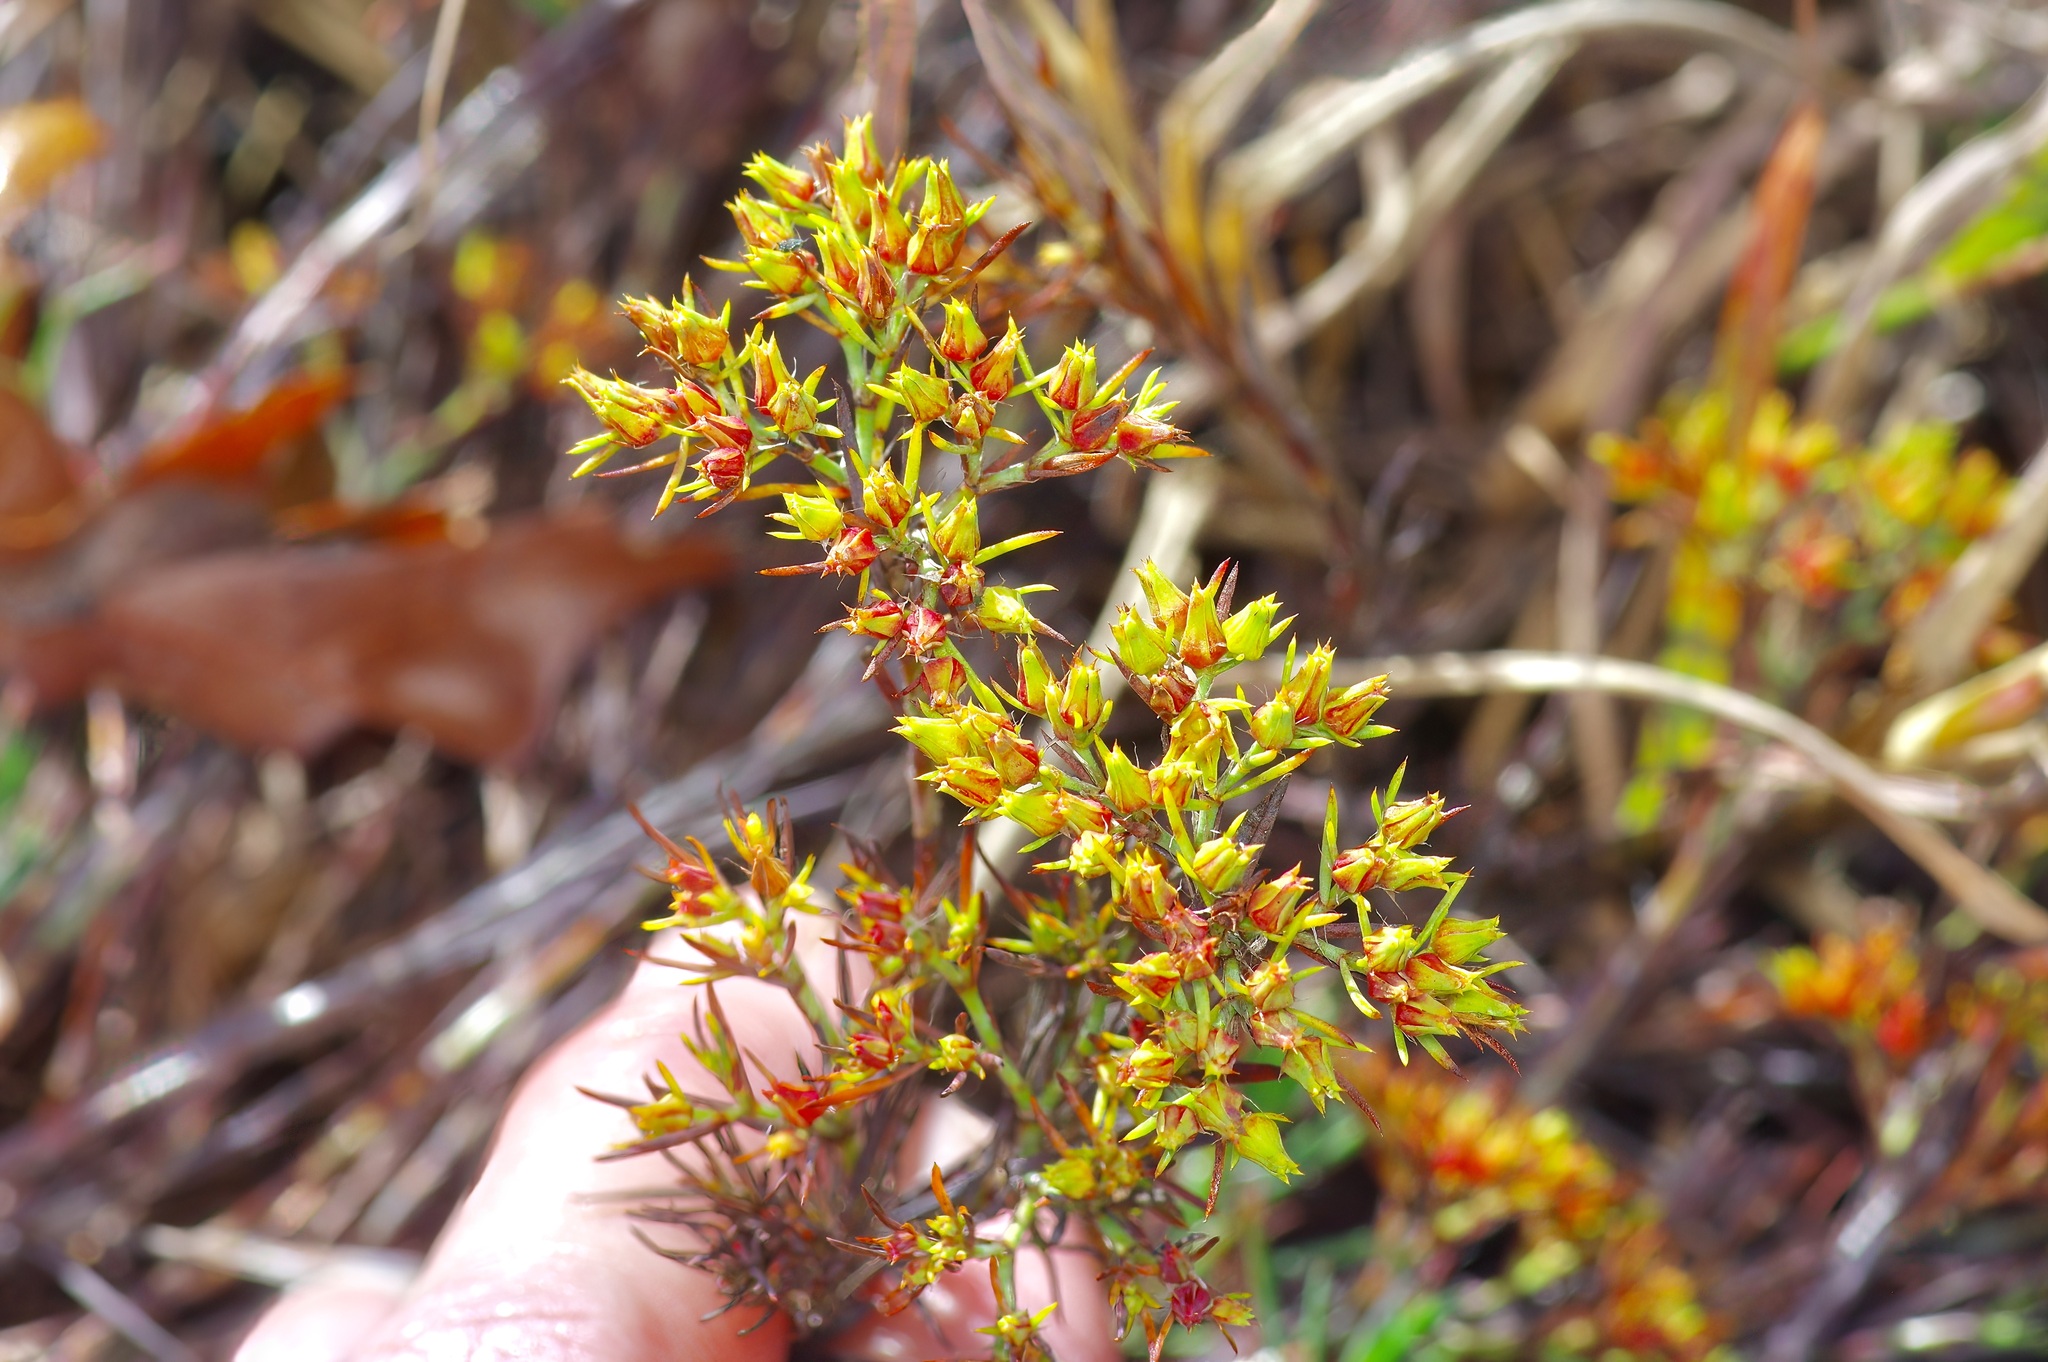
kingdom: Plantae
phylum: Tracheophyta
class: Magnoliopsida
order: Caryophyllales
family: Caryophyllaceae
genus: Paronychia
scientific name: Paronychia virginica
